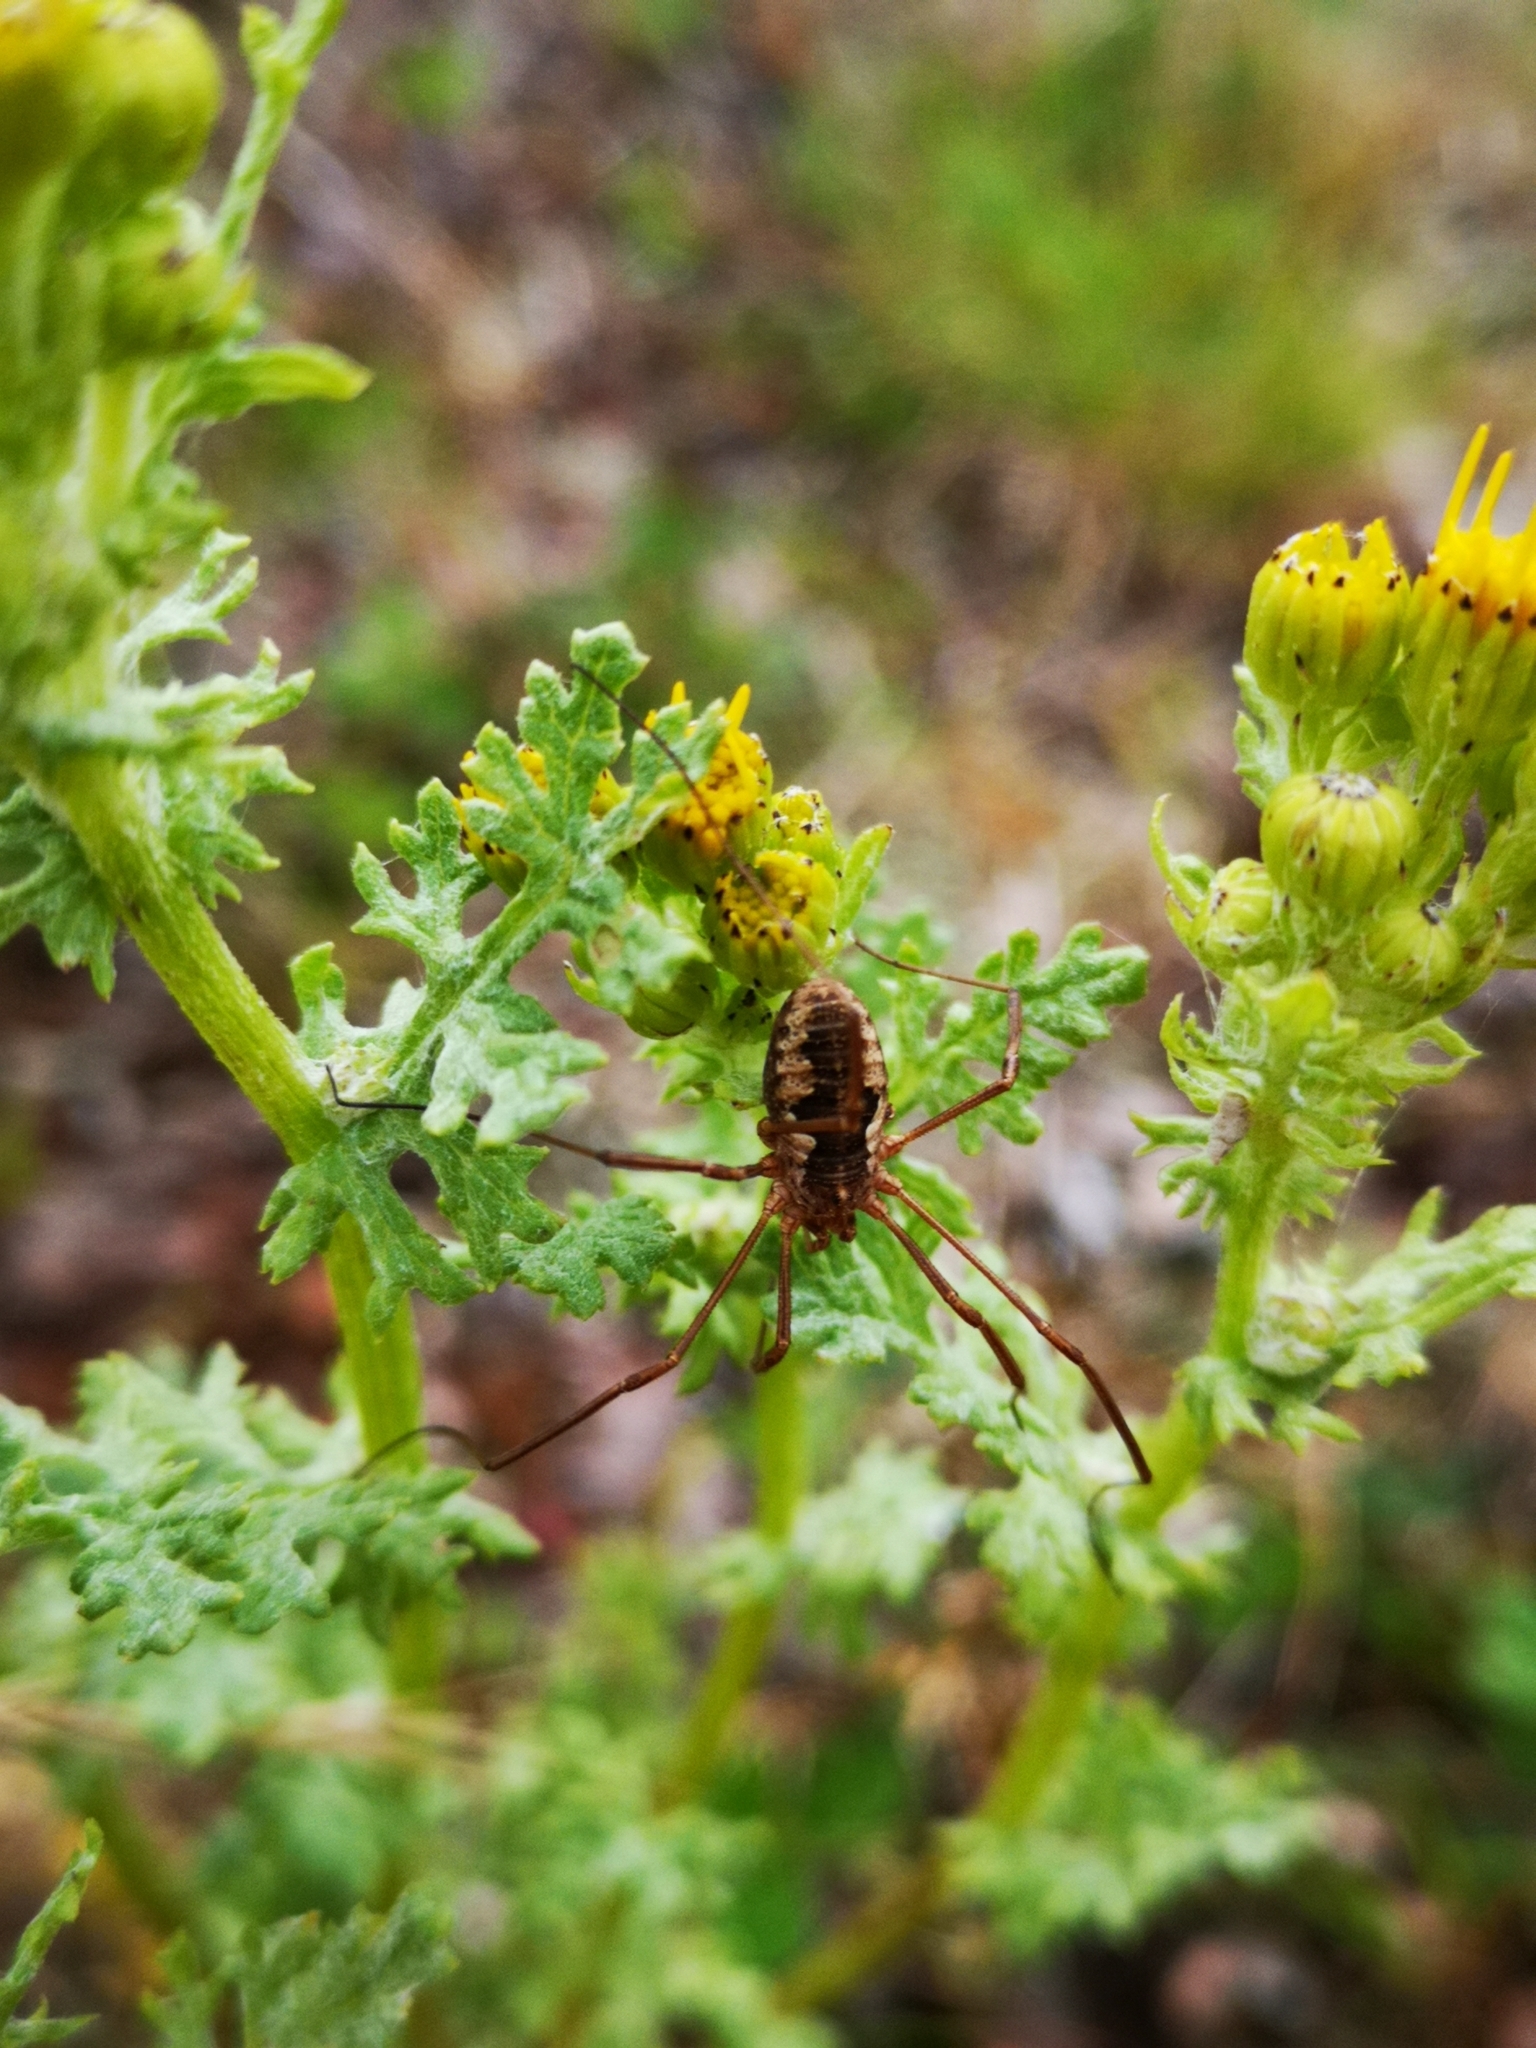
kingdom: Animalia
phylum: Arthropoda
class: Arachnida
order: Opiliones
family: Phalangiidae
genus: Phalangium
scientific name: Phalangium opilio
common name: Daddy longleg
